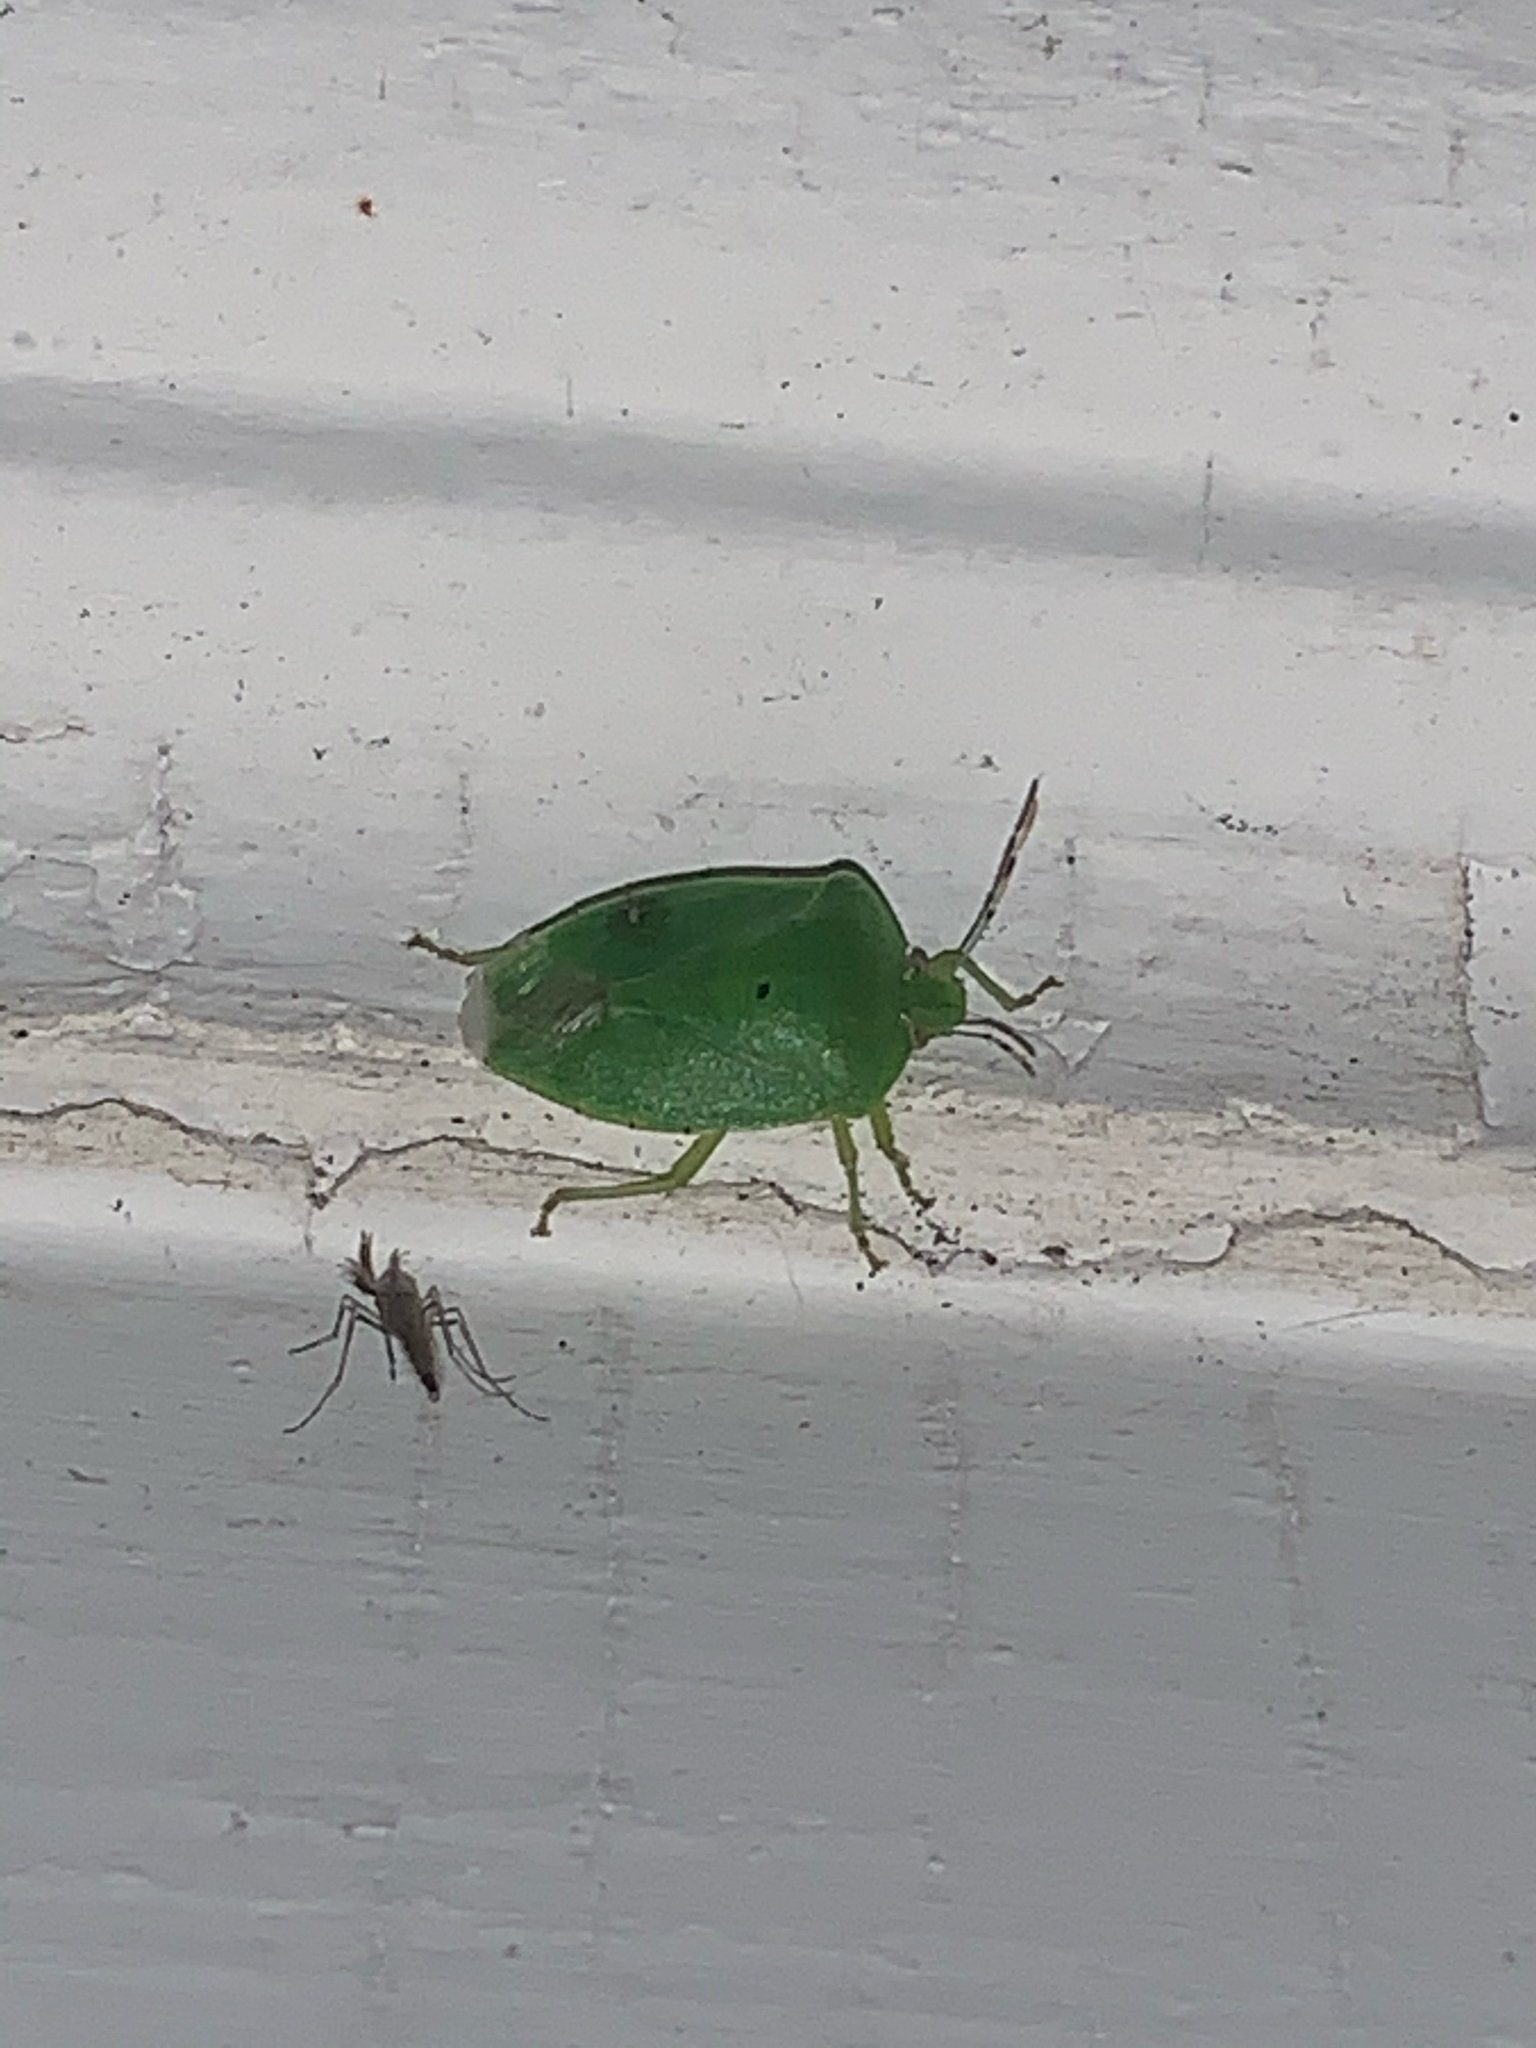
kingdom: Animalia
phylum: Arthropoda
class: Insecta
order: Hemiptera
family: Pentatomidae
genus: Chinavia
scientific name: Chinavia hilaris
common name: Green stink bug
